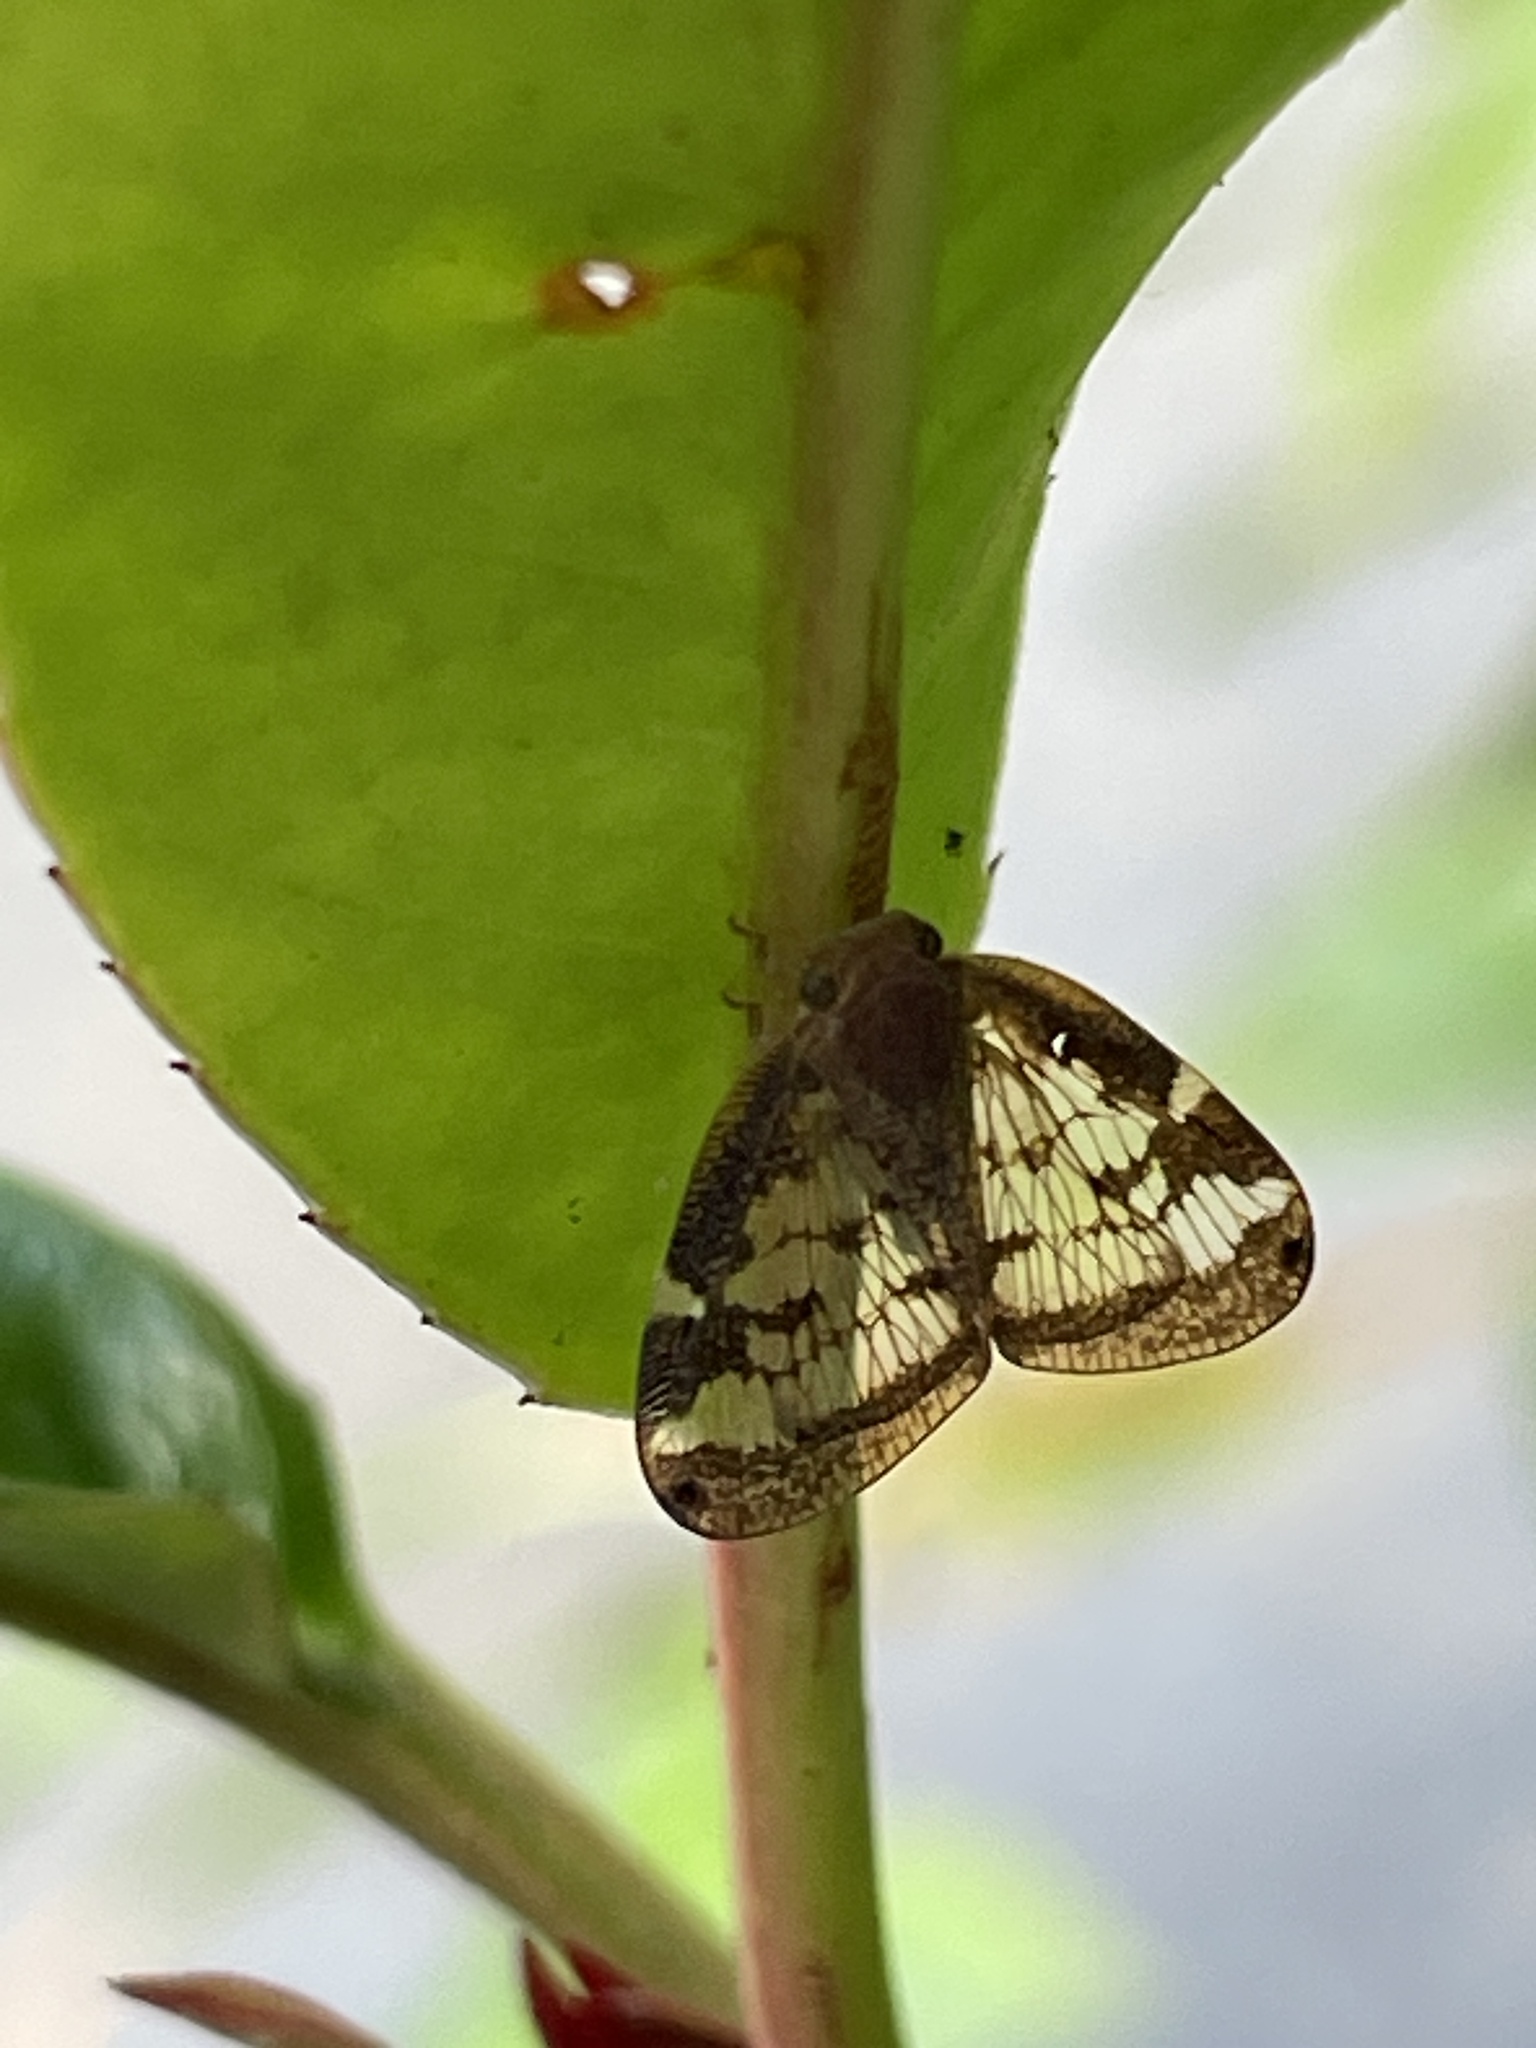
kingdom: Animalia
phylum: Arthropoda
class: Insecta
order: Hemiptera
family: Ricaniidae
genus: Scolypopa
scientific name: Scolypopa australis
